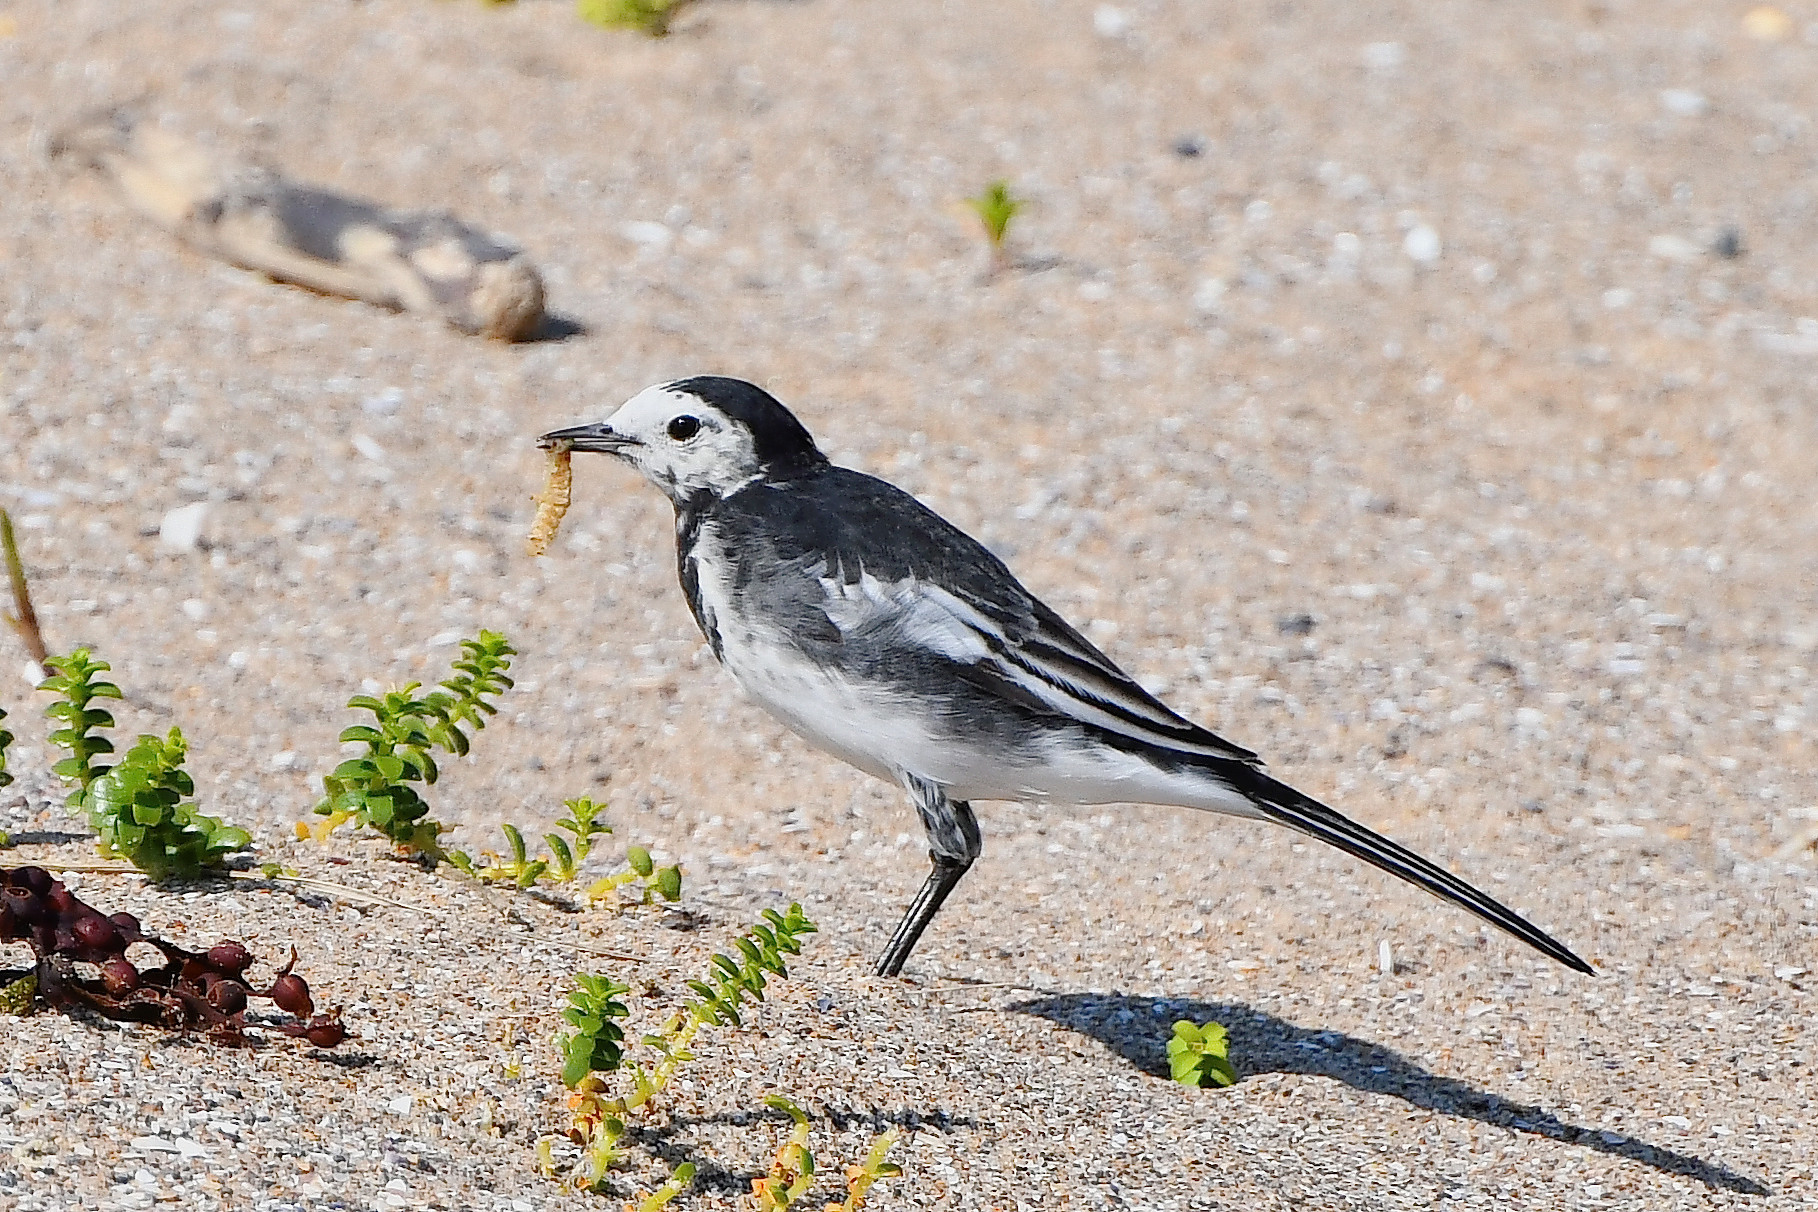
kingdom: Animalia
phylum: Chordata
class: Aves
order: Passeriformes
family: Motacillidae
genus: Motacilla
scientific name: Motacilla alba
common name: White wagtail
